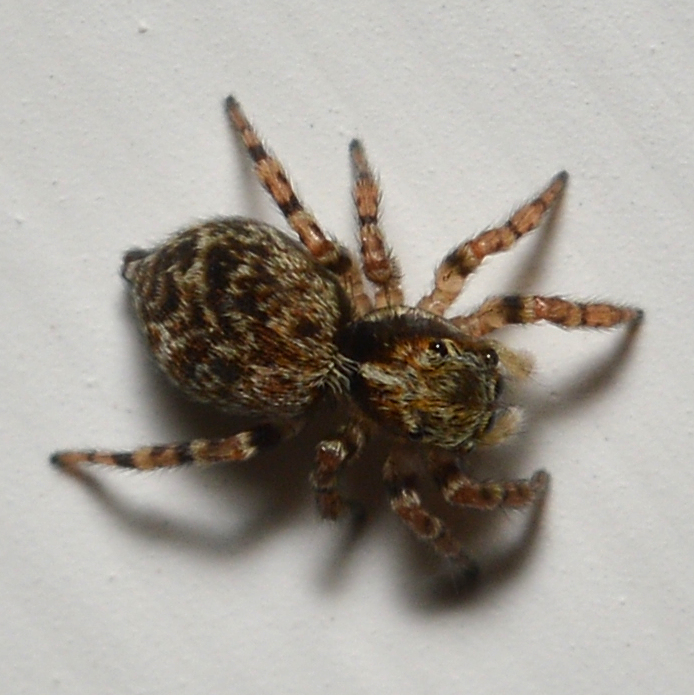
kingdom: Animalia
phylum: Arthropoda
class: Arachnida
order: Araneae
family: Salticidae
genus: Pseudeuophrys
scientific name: Pseudeuophrys erratica
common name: Jumping spider
